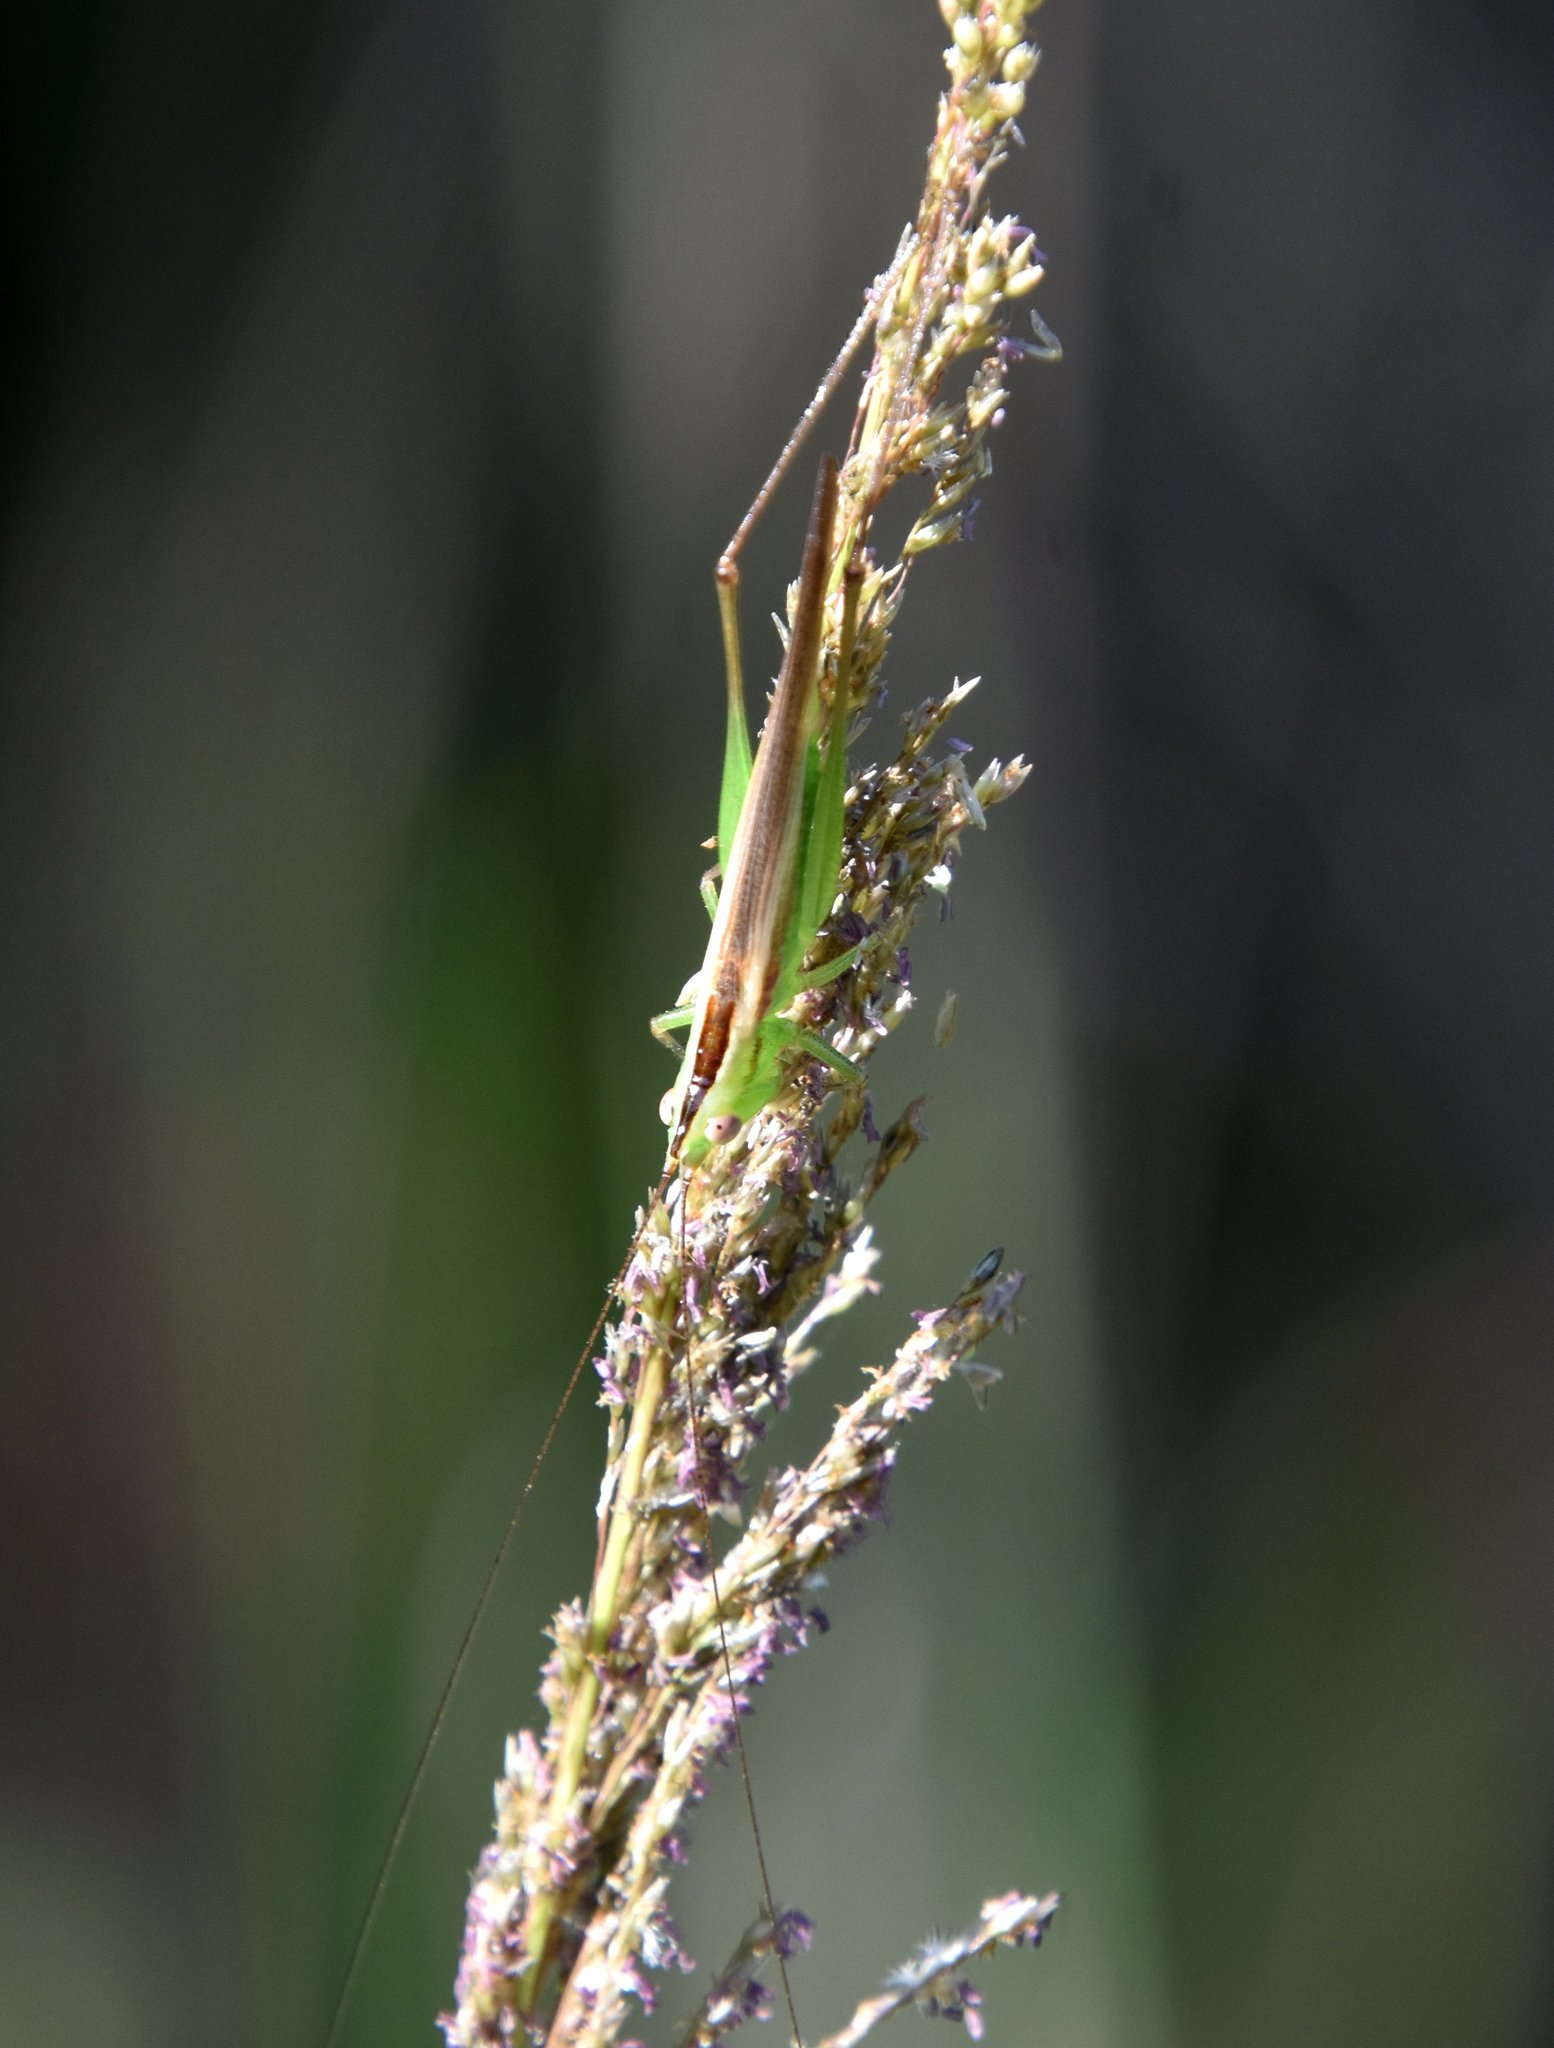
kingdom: Animalia
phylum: Arthropoda
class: Insecta
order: Orthoptera
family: Tettigoniidae
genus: Conocephalus
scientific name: Conocephalus gracillimus
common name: Graceful meadow katydid
